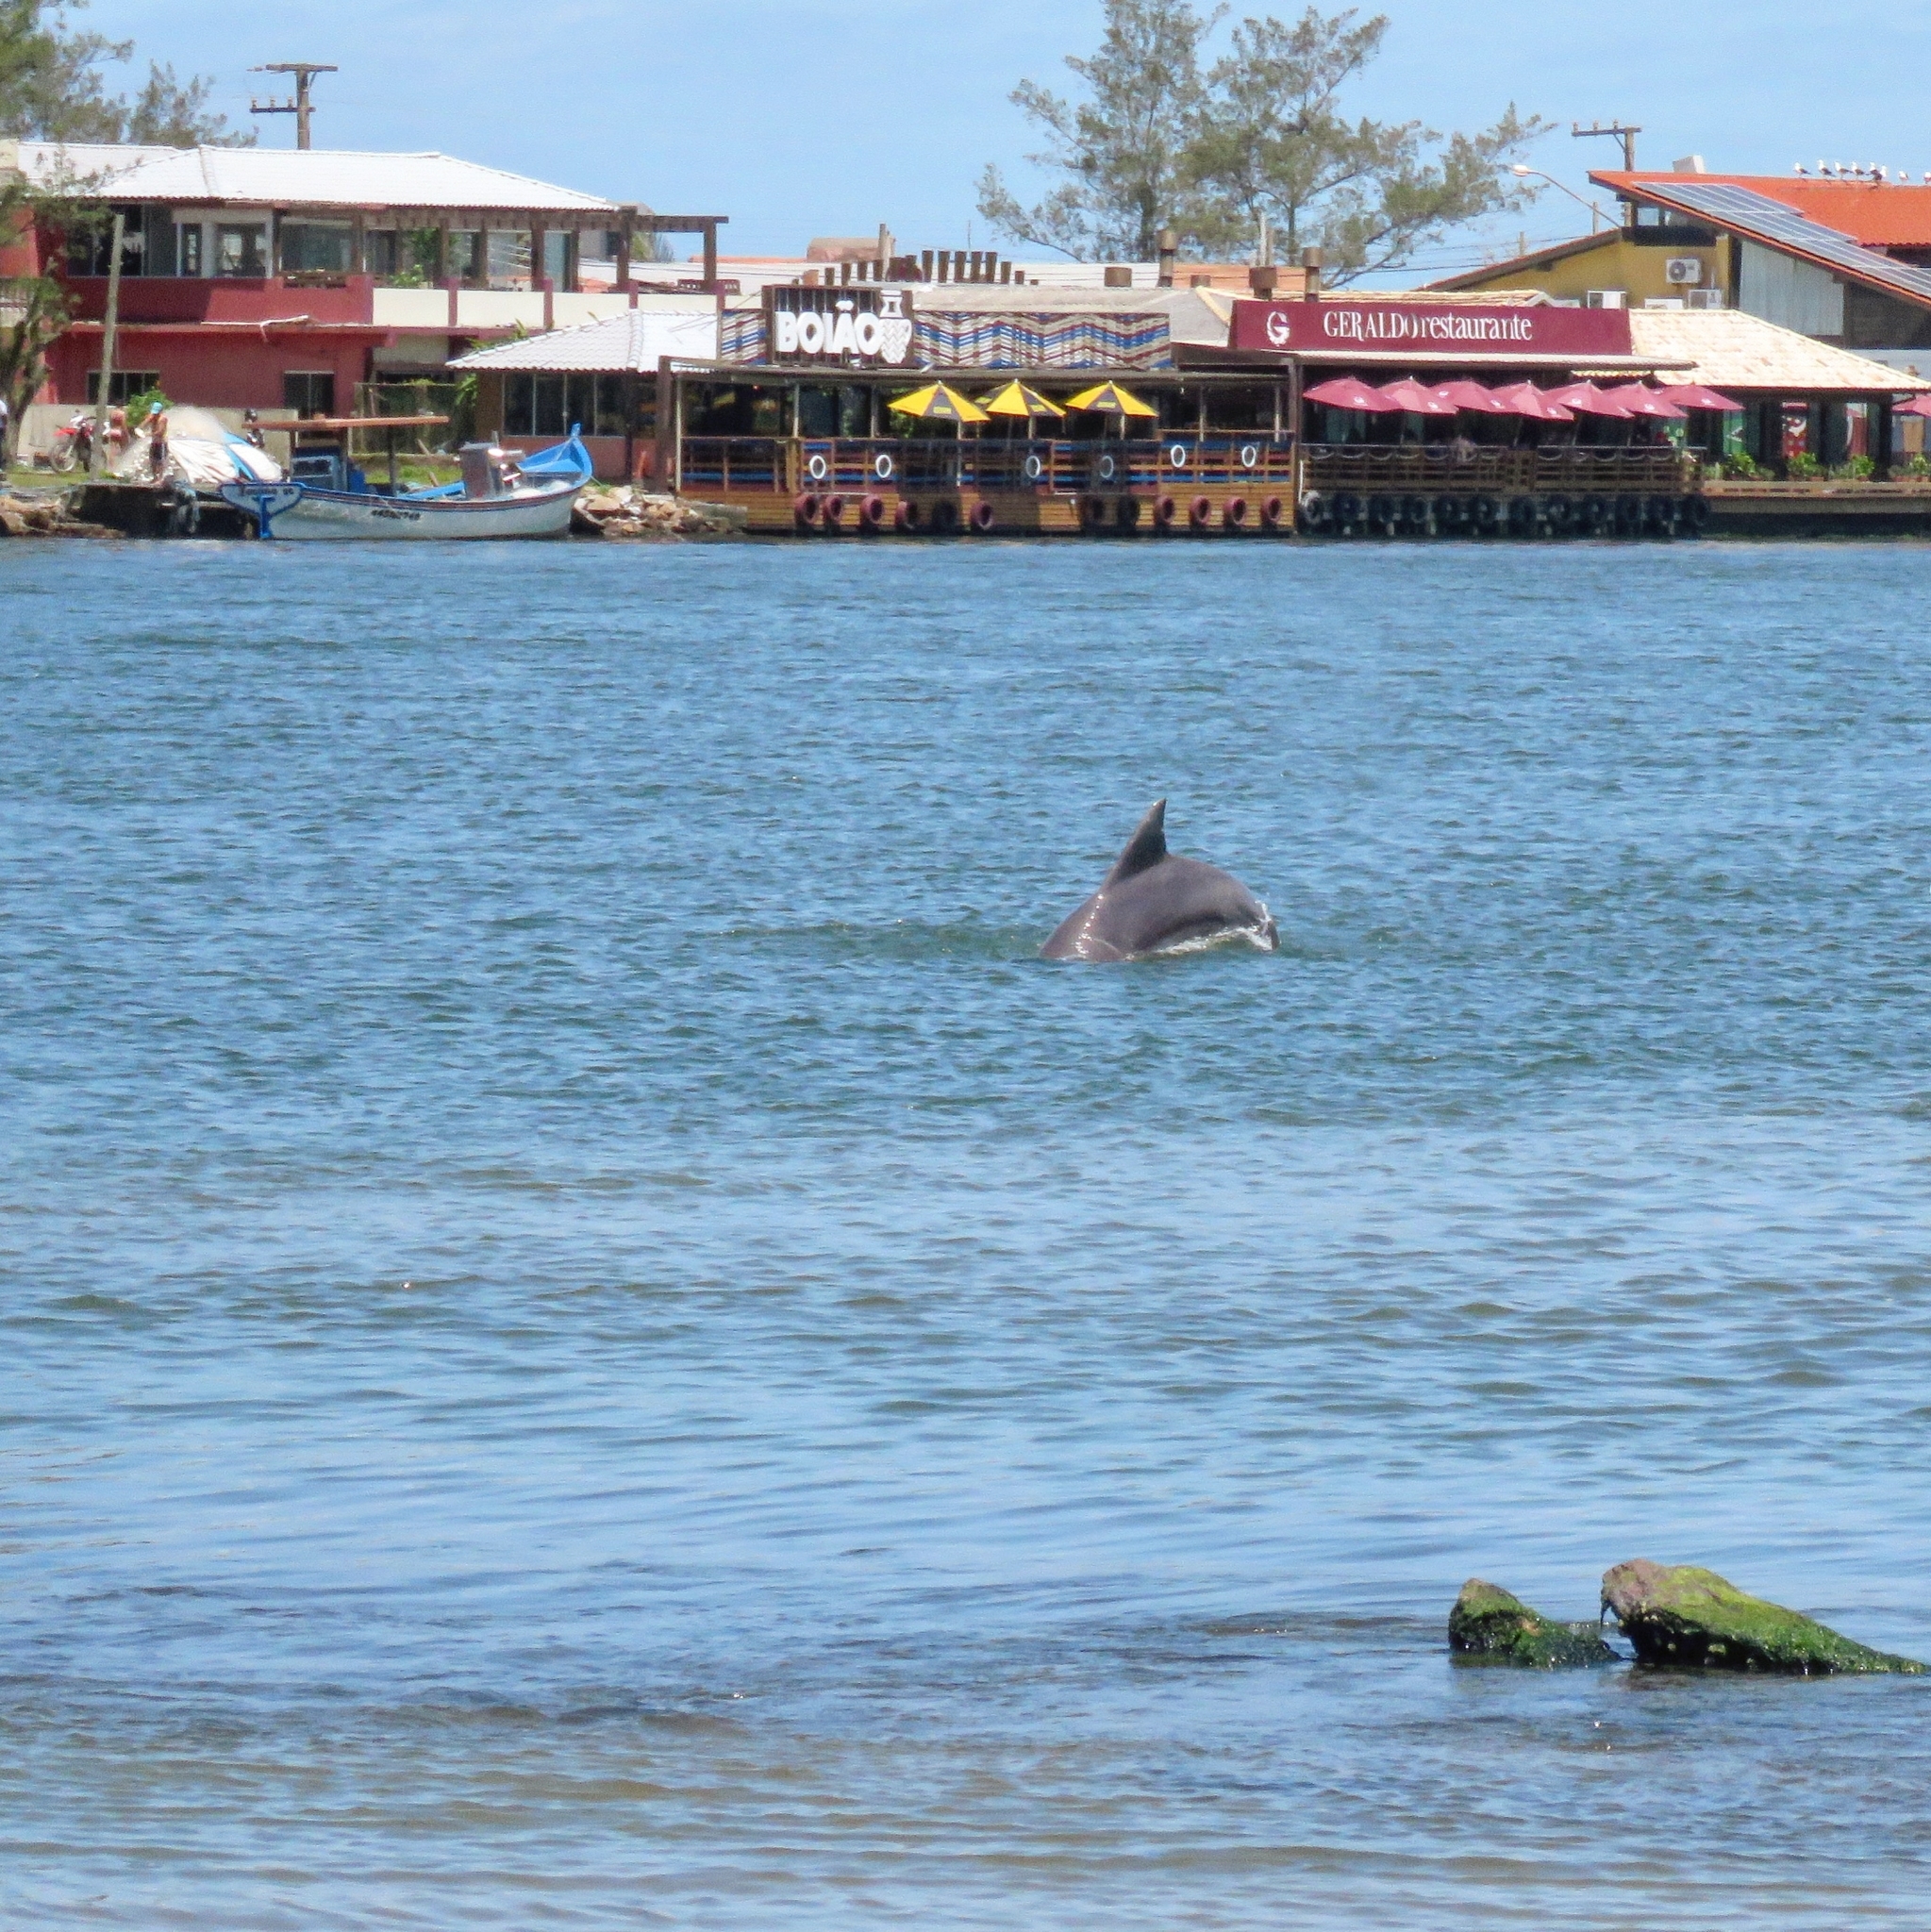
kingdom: Animalia
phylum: Chordata
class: Mammalia
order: Cetacea
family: Delphinidae
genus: Tursiops
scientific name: Tursiops truncatus
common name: Bottlenose dolphin
